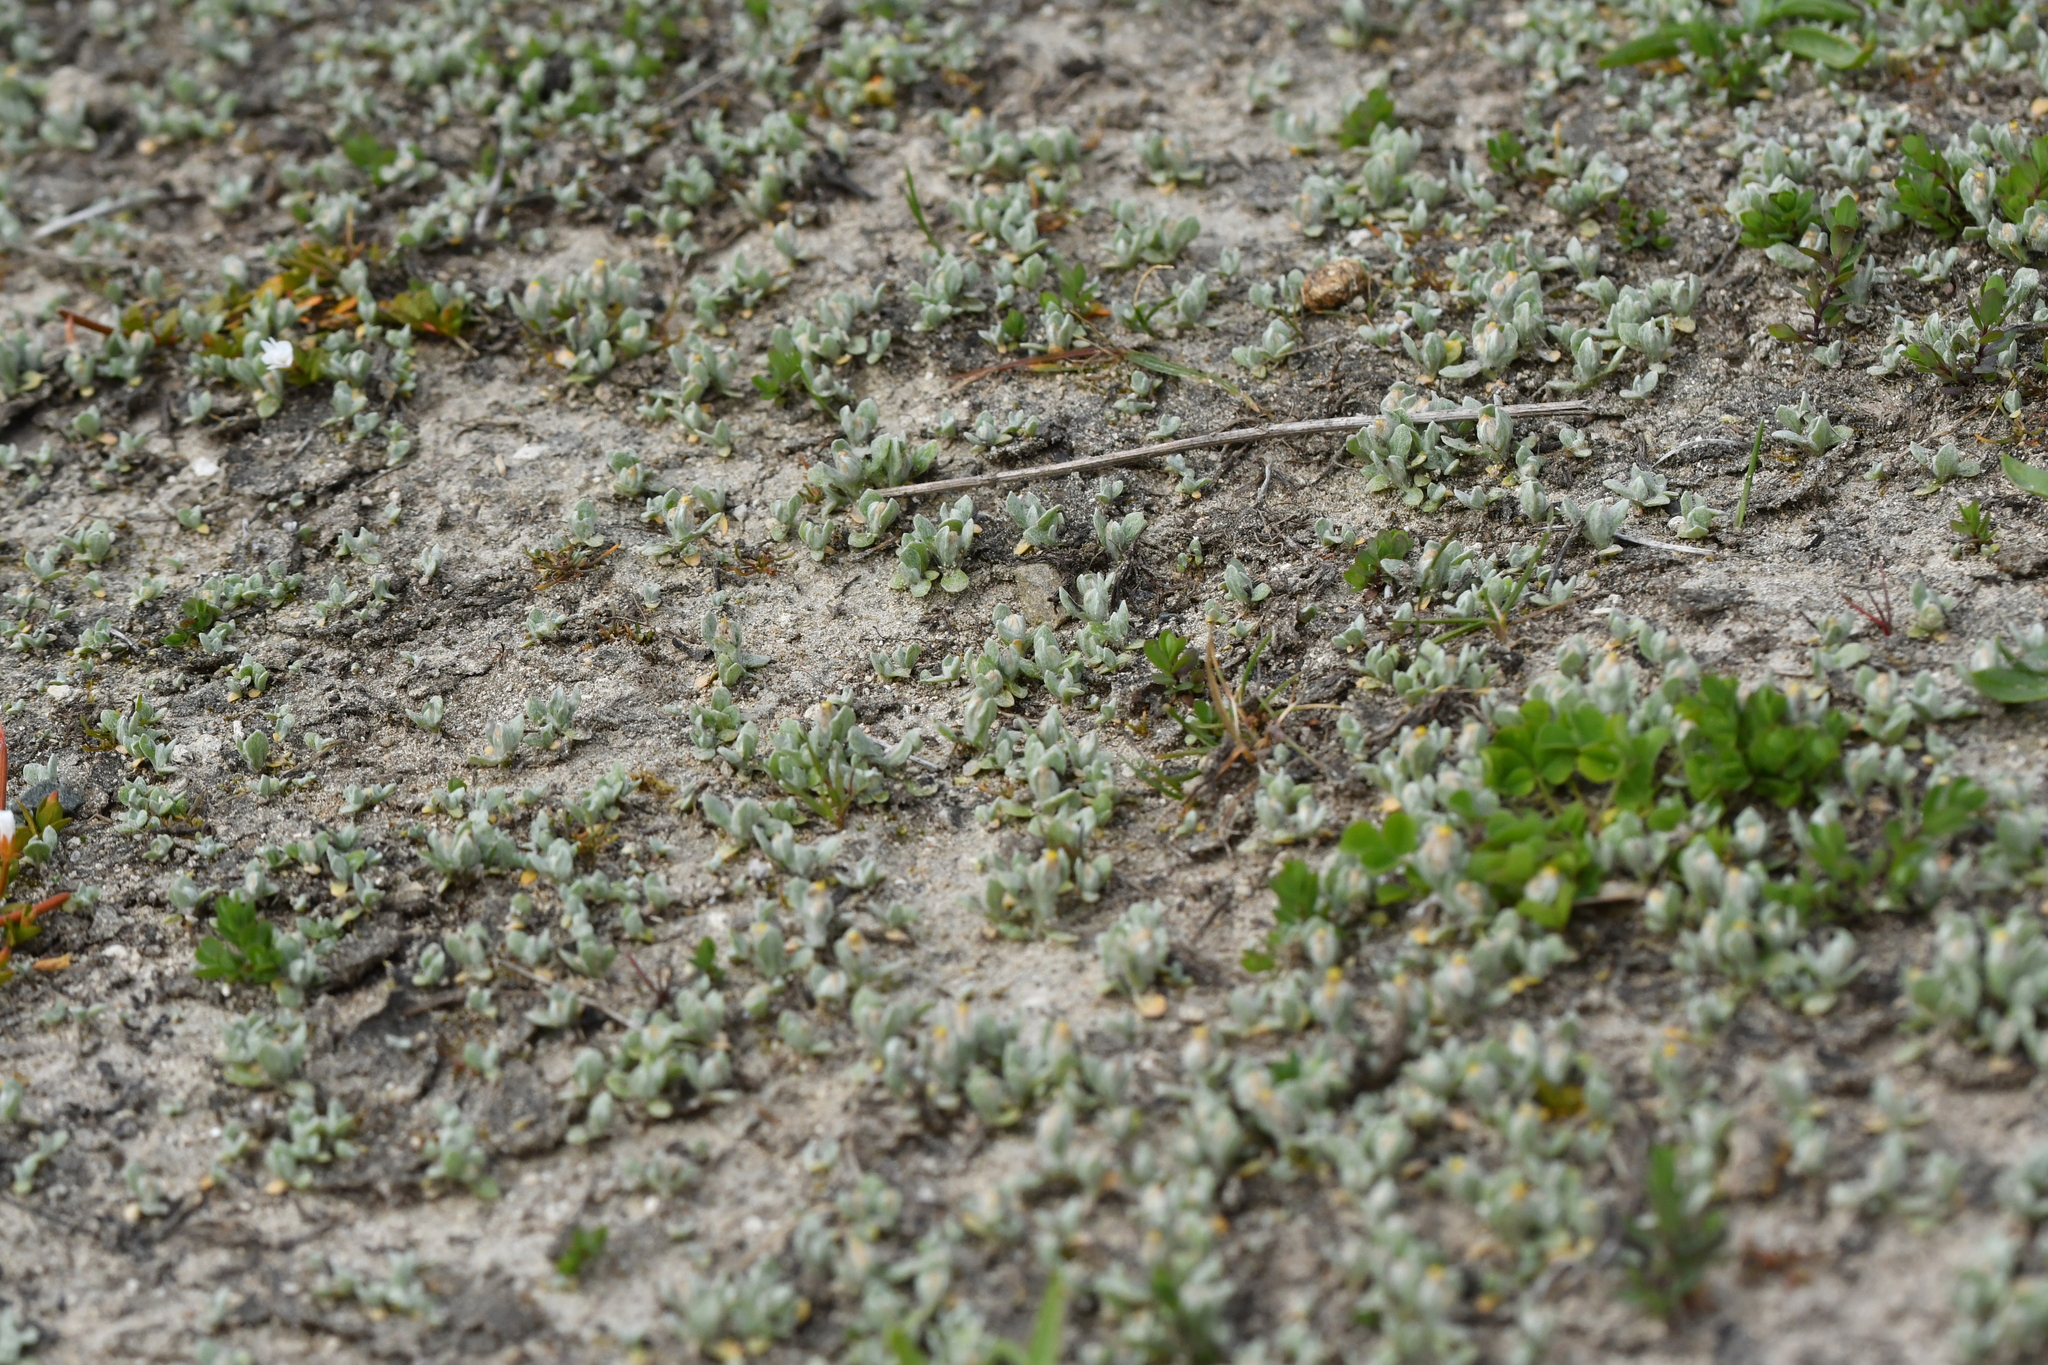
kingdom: Plantae
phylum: Tracheophyta
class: Magnoliopsida
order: Asterales
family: Asteraceae
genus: Pseudognaphalium
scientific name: Pseudognaphalium ephemerum
